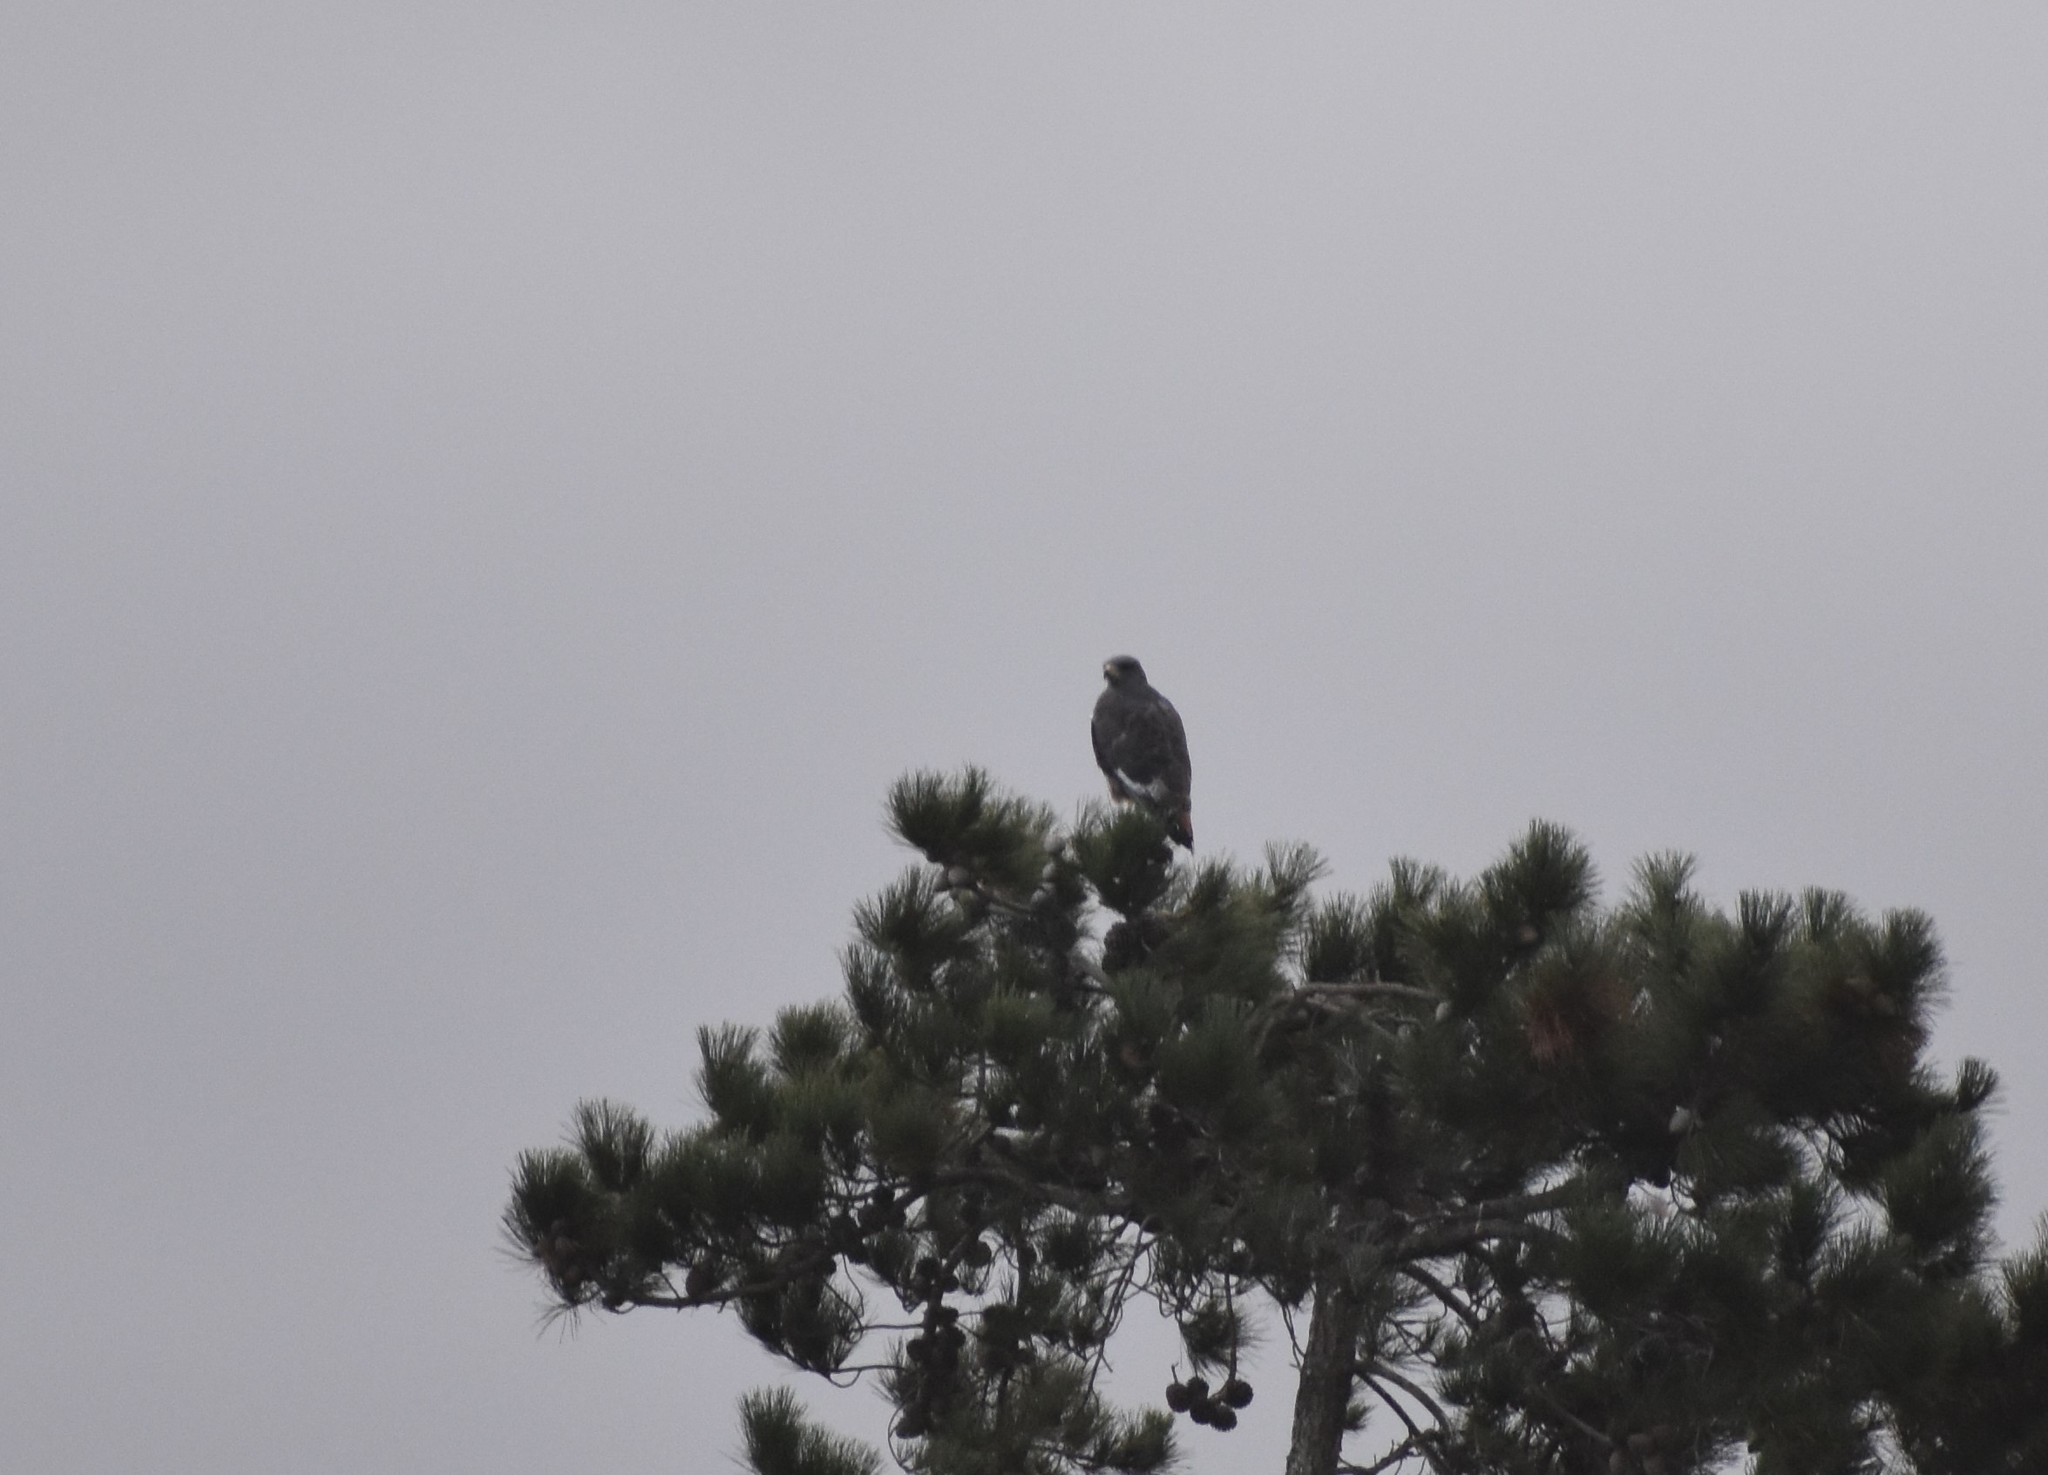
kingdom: Animalia
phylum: Chordata
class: Aves
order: Accipitriformes
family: Accipitridae
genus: Buteo
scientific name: Buteo rufofuscus
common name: Jackal buzzard
